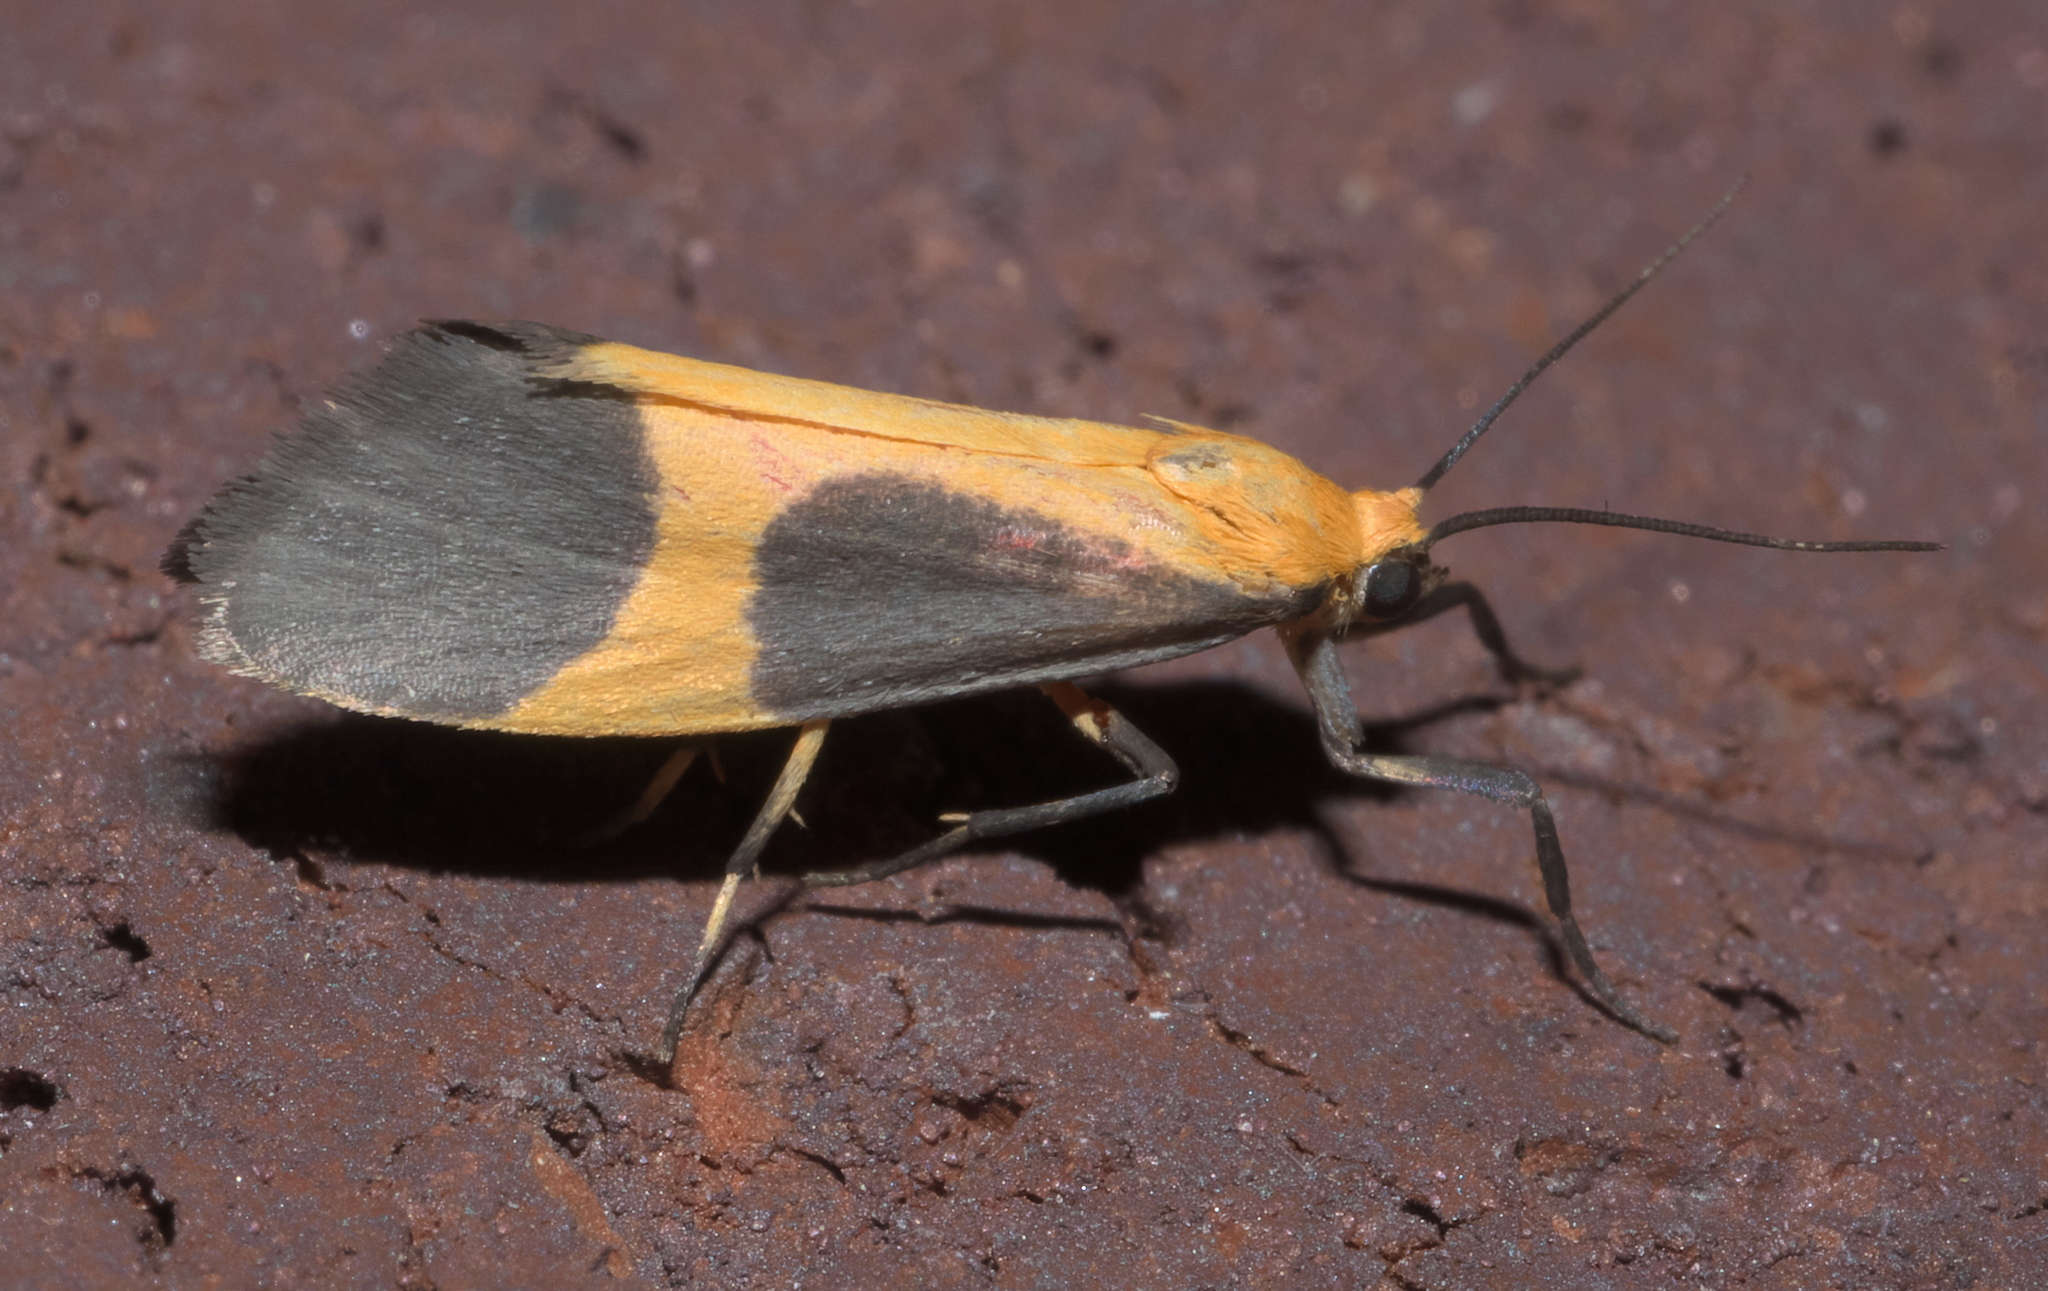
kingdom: Animalia
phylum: Arthropoda
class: Insecta
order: Lepidoptera
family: Erebidae
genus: Cisthene
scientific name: Cisthene picta
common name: Pictured lichen moth
